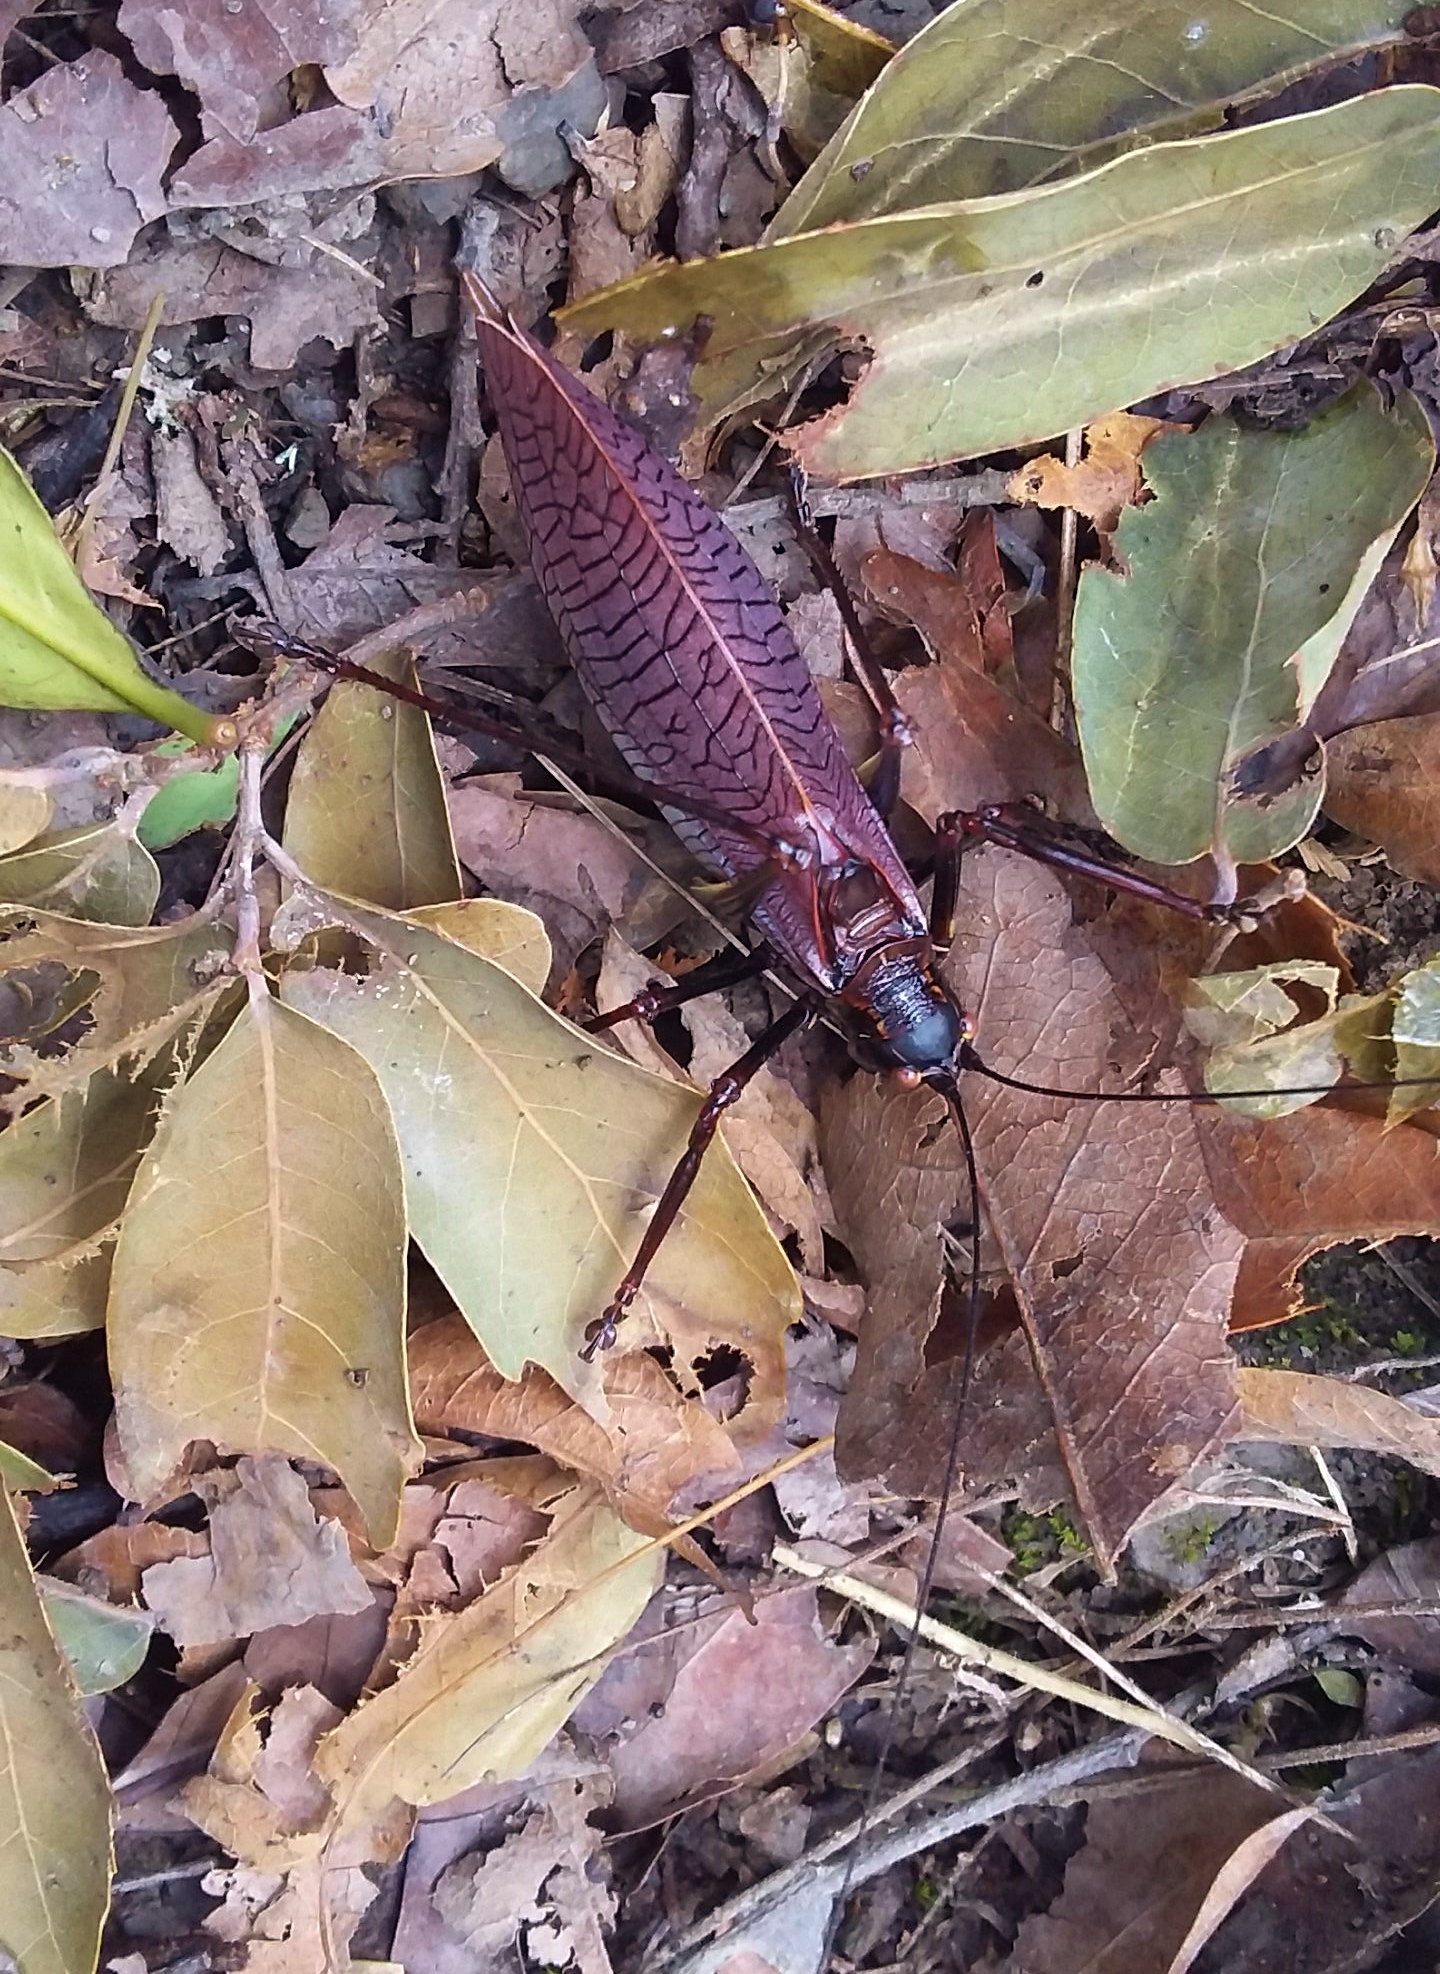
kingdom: Animalia
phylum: Arthropoda
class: Insecta
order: Orthoptera
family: Tettigoniidae
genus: Pterophylla
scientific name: Pterophylla beltrani
